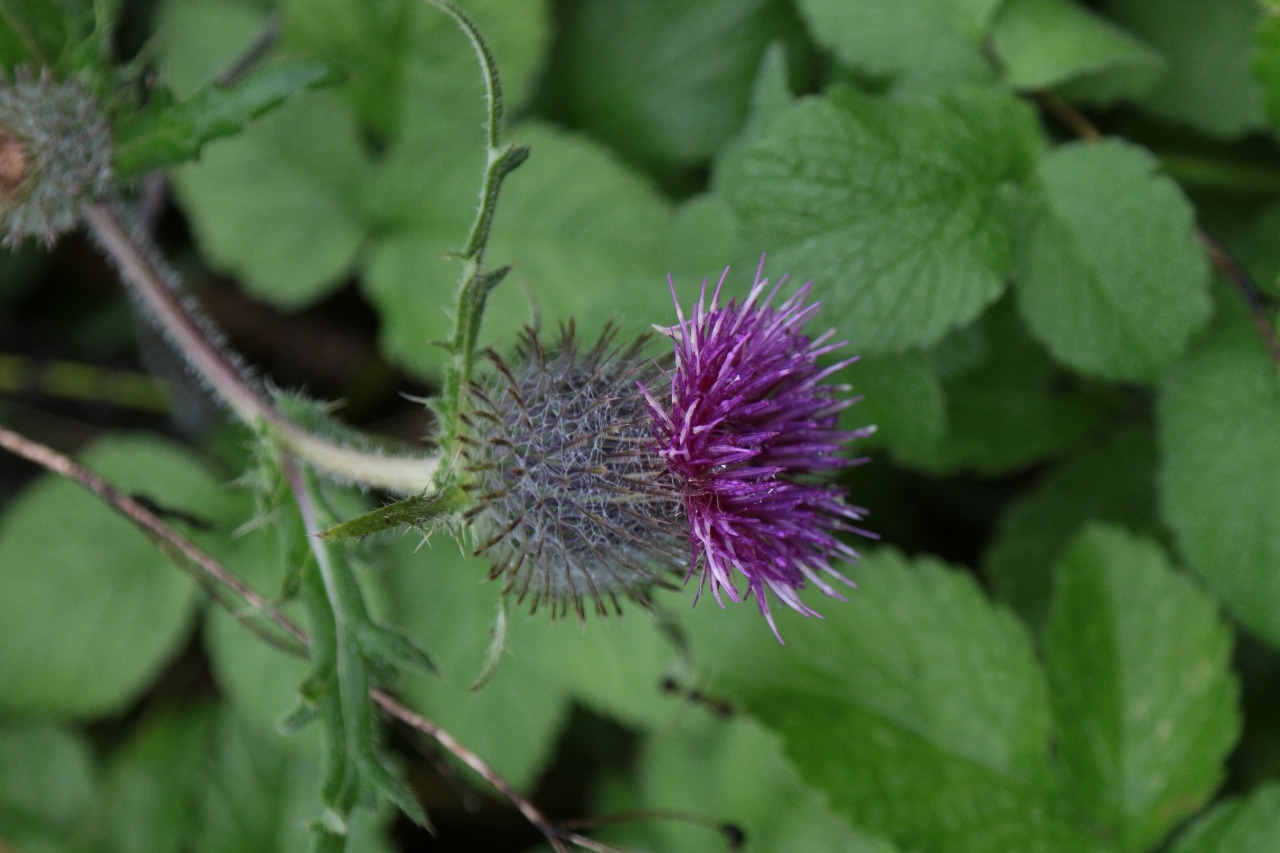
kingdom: Plantae
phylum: Tracheophyta
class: Magnoliopsida
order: Asterales
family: Asteraceae
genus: Carduus
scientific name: Carduus crispus
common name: Welted thistle
